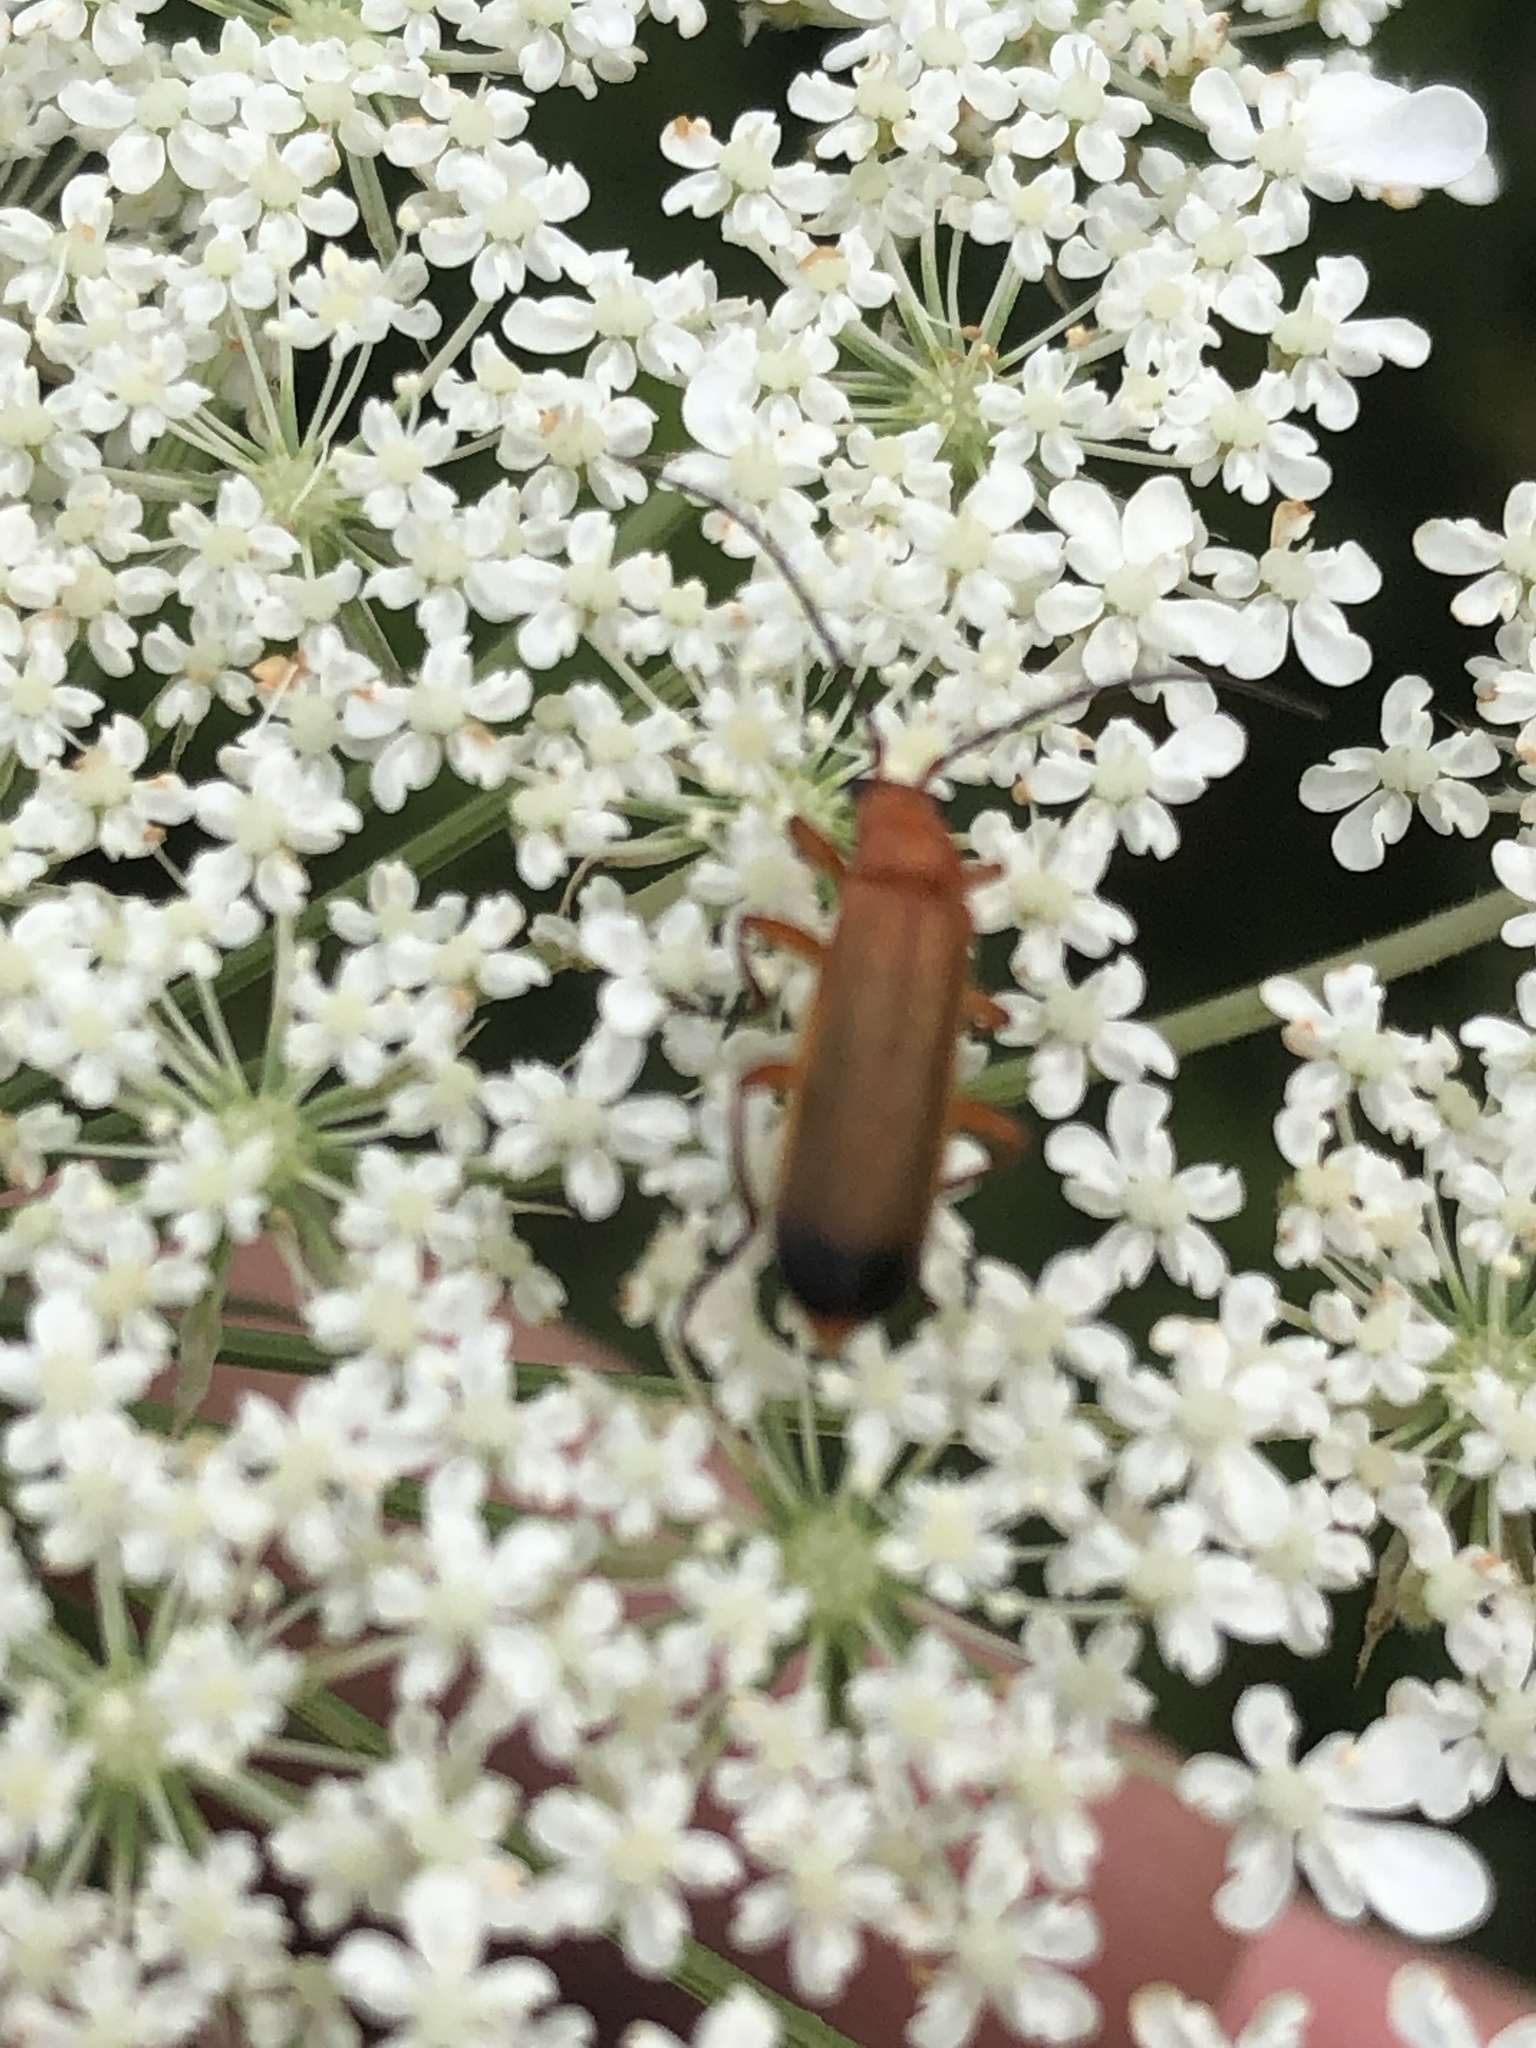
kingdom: Animalia
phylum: Arthropoda
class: Insecta
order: Coleoptera
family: Cantharidae
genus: Rhagonycha
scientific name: Rhagonycha fulva
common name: Common red soldier beetle
